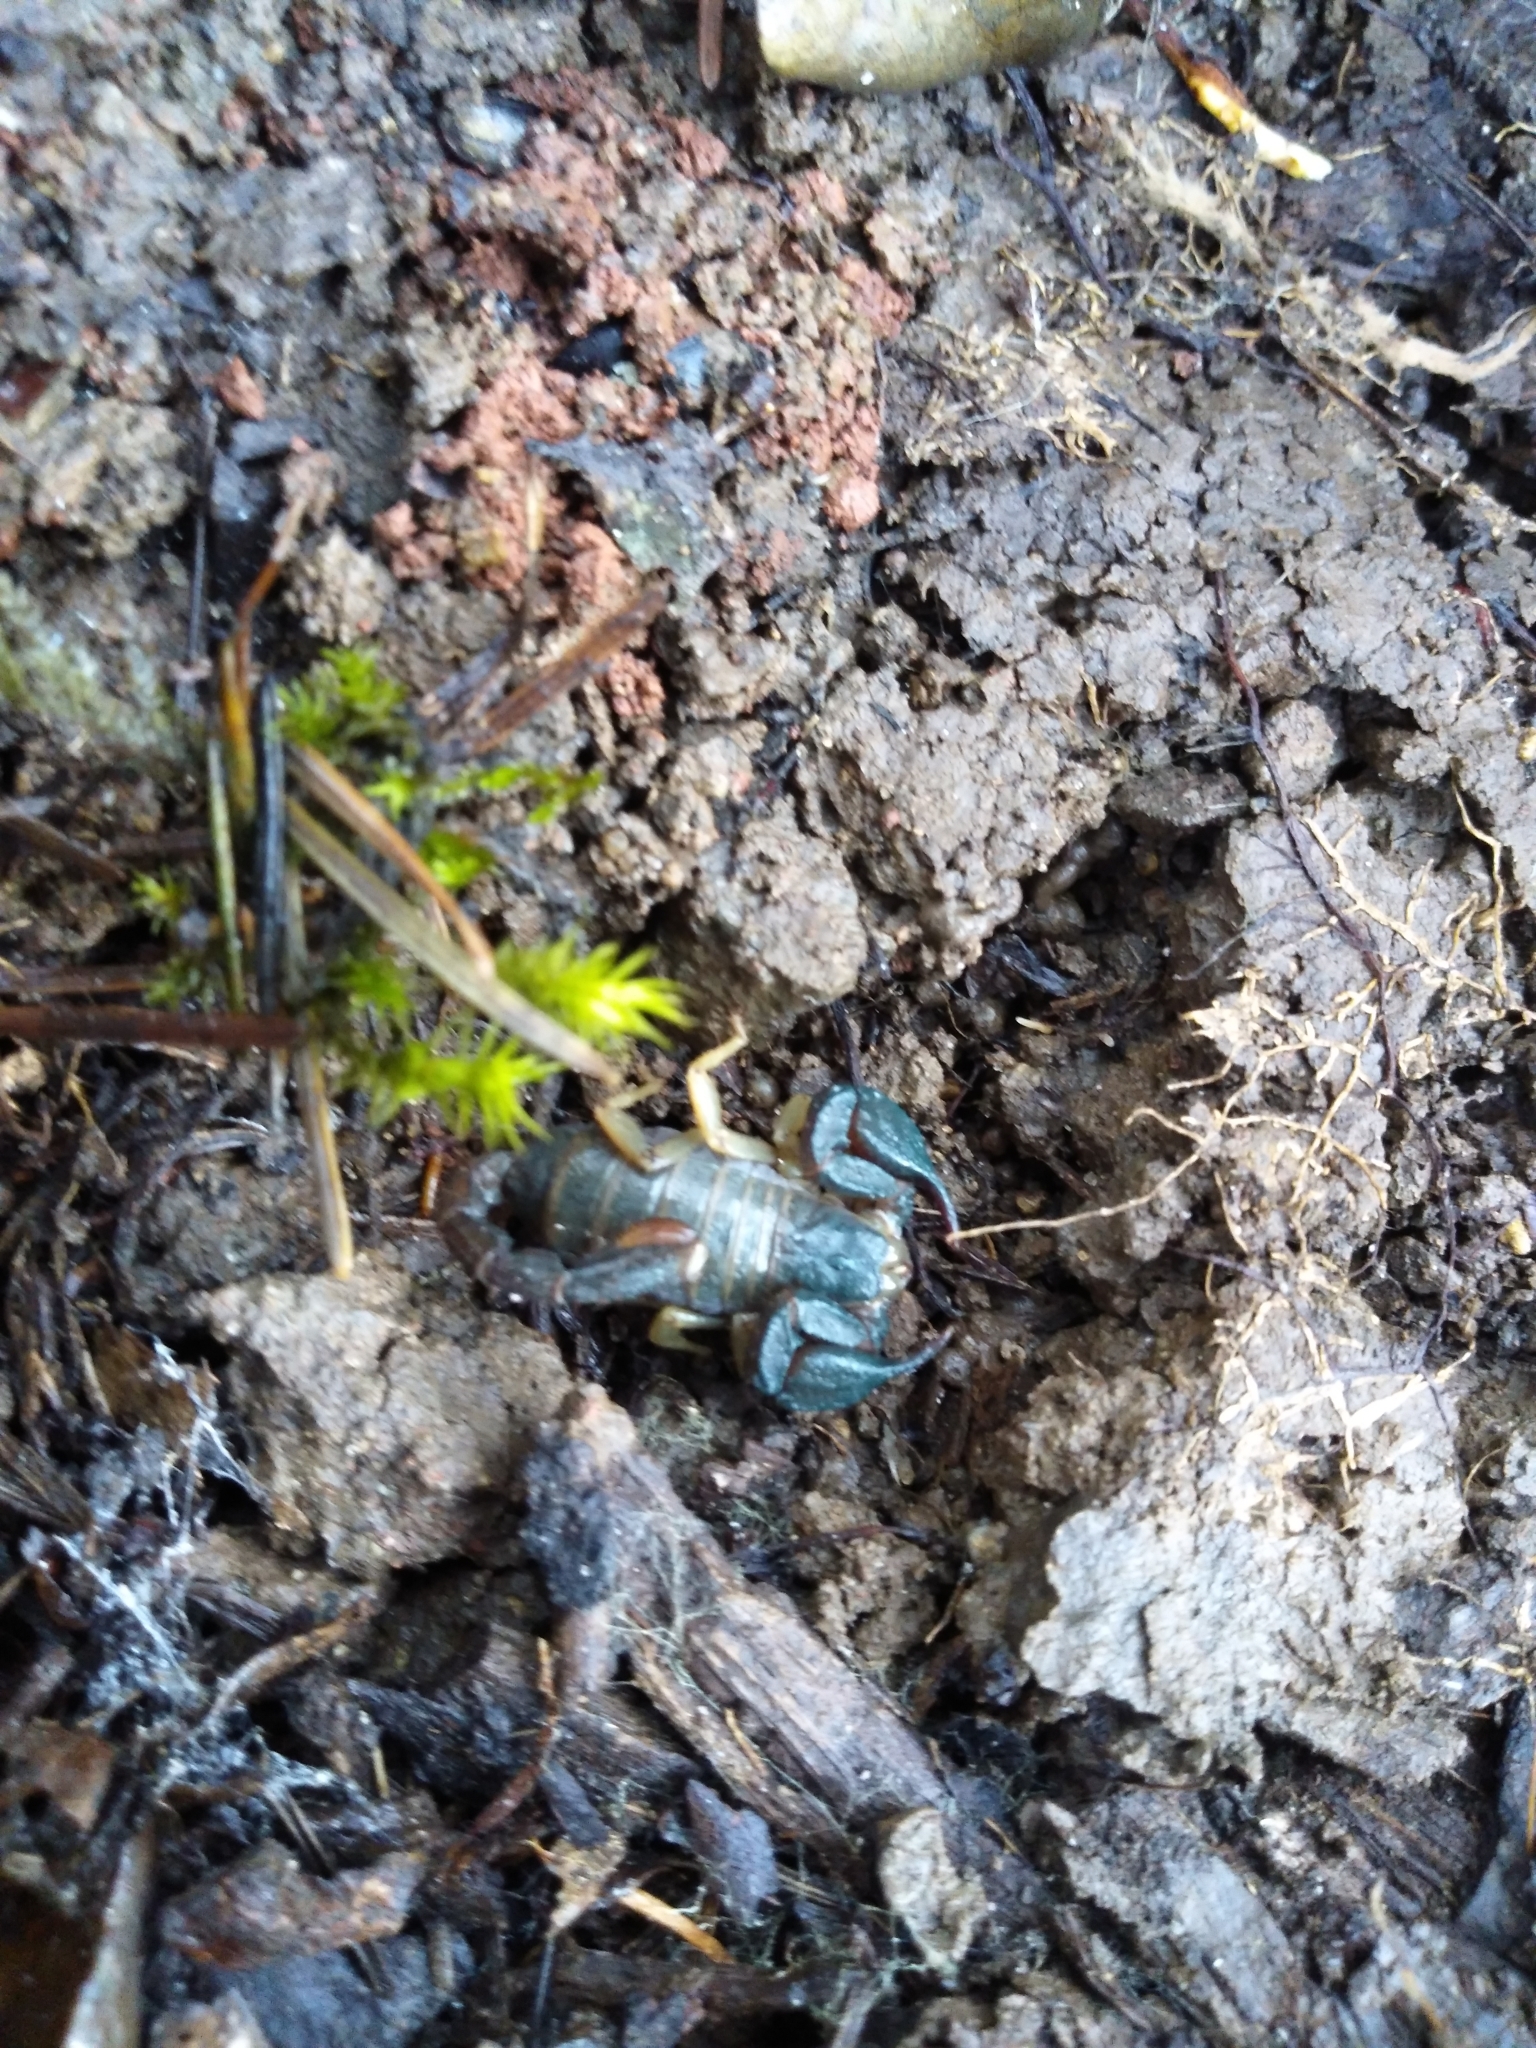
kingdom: Animalia
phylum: Arthropoda
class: Arachnida
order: Scorpiones
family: Chactidae
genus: Uroctonus
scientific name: Uroctonus mordax
